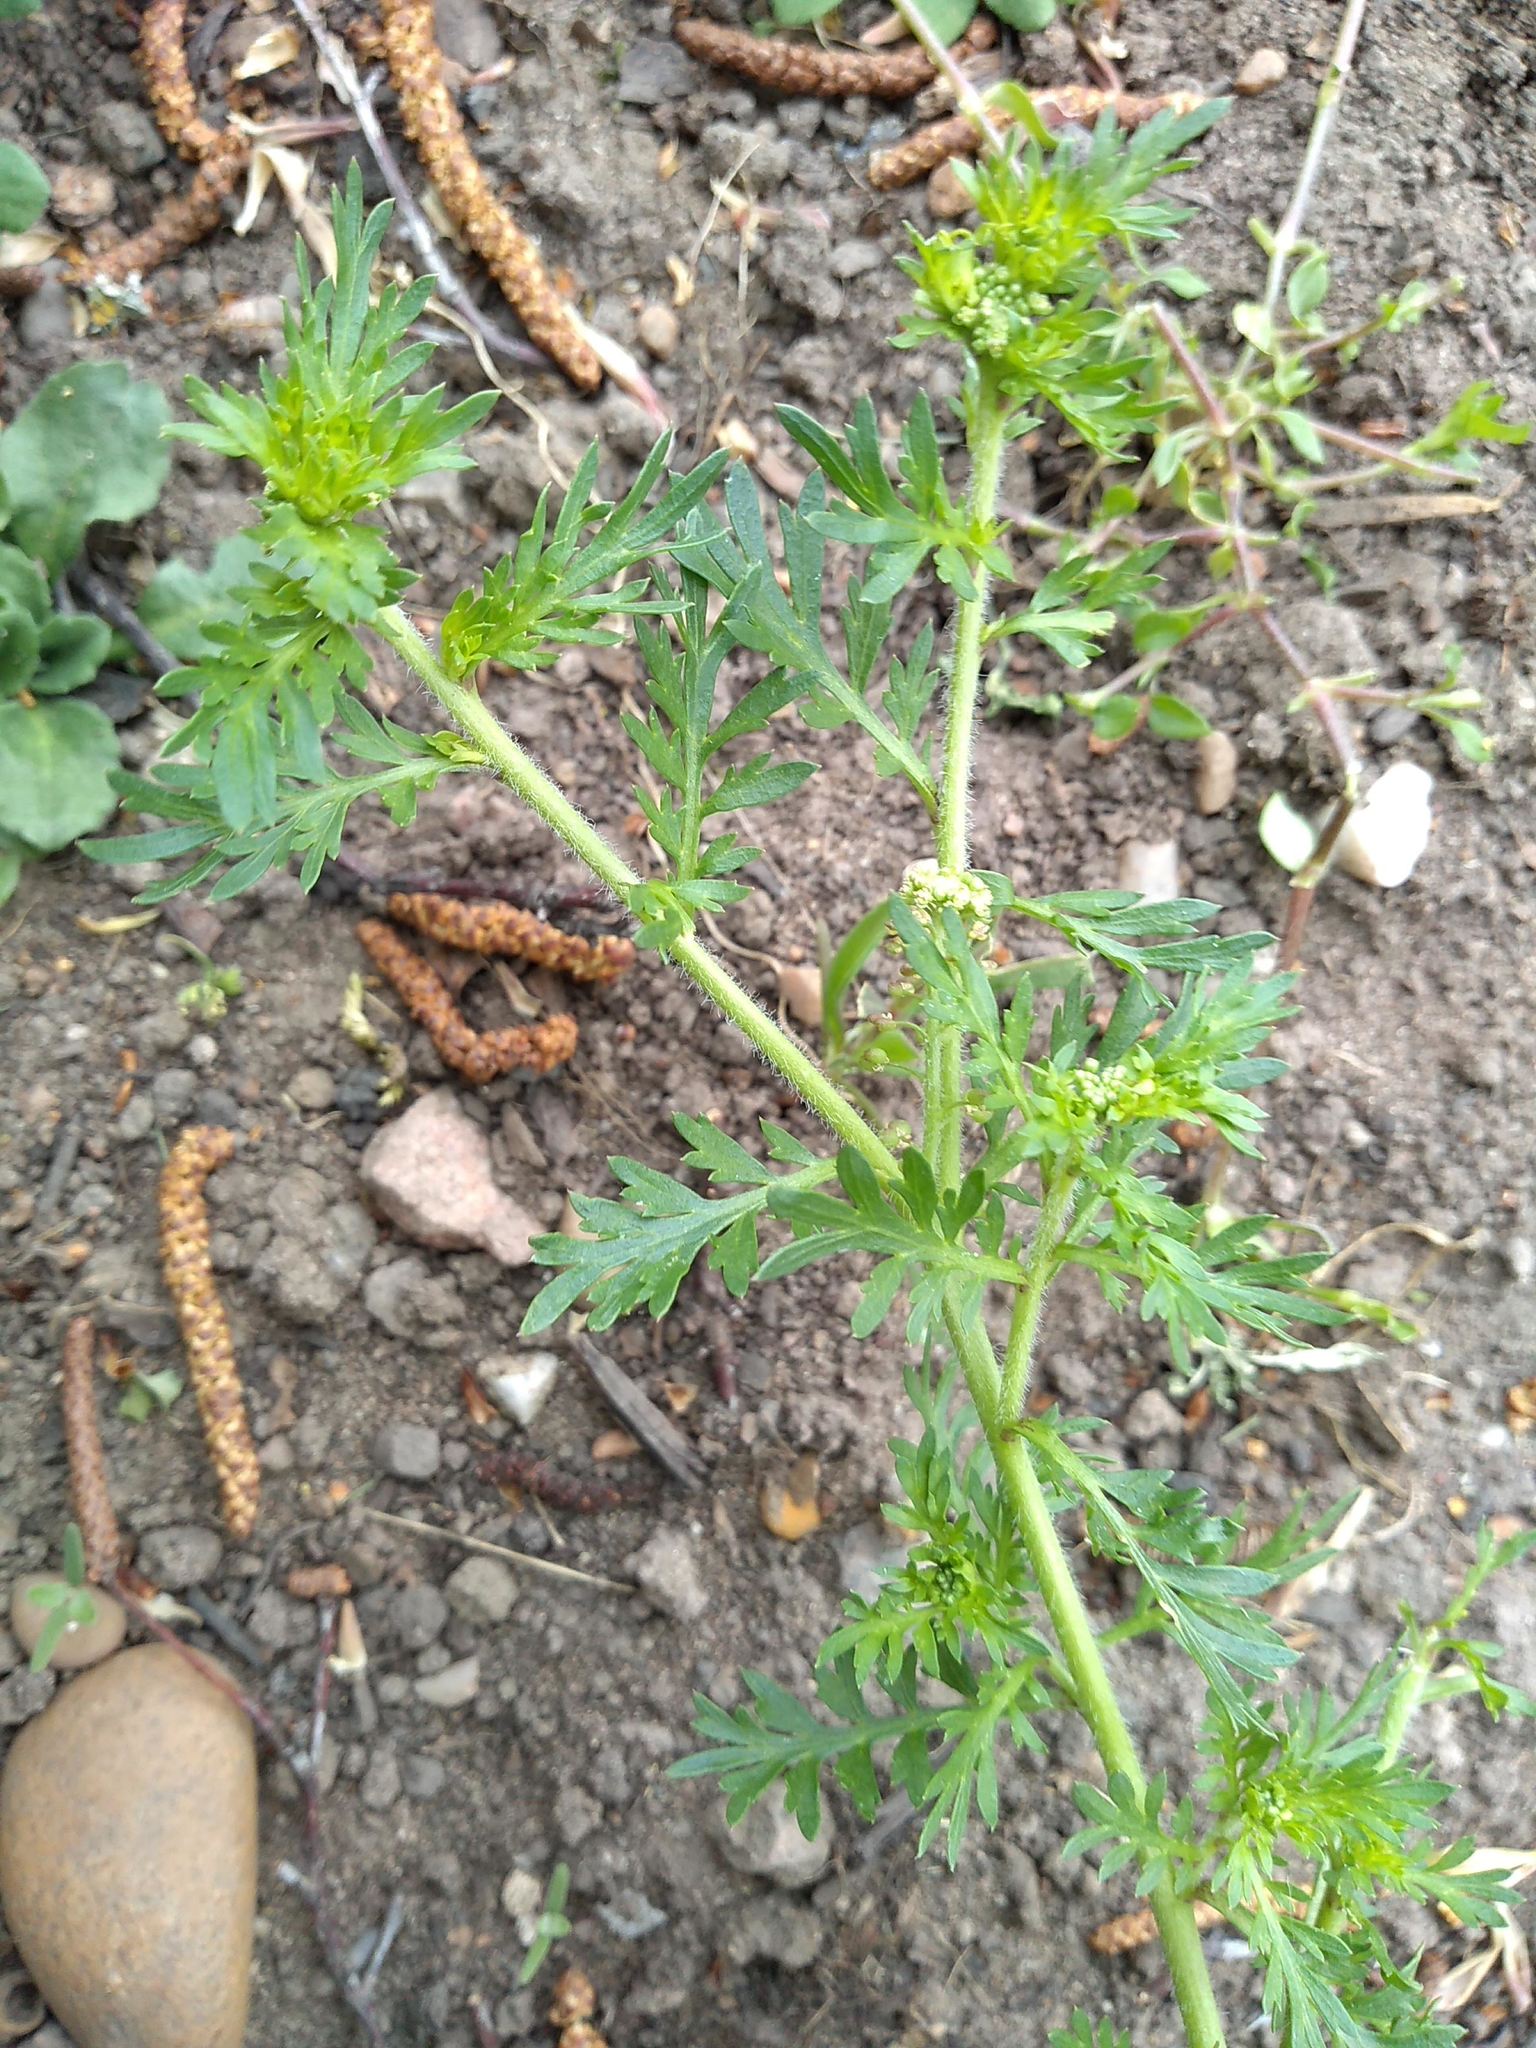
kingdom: Plantae
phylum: Tracheophyta
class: Magnoliopsida
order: Brassicales
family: Brassicaceae
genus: Lepidium
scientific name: Lepidium didymum
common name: Lesser swinecress
